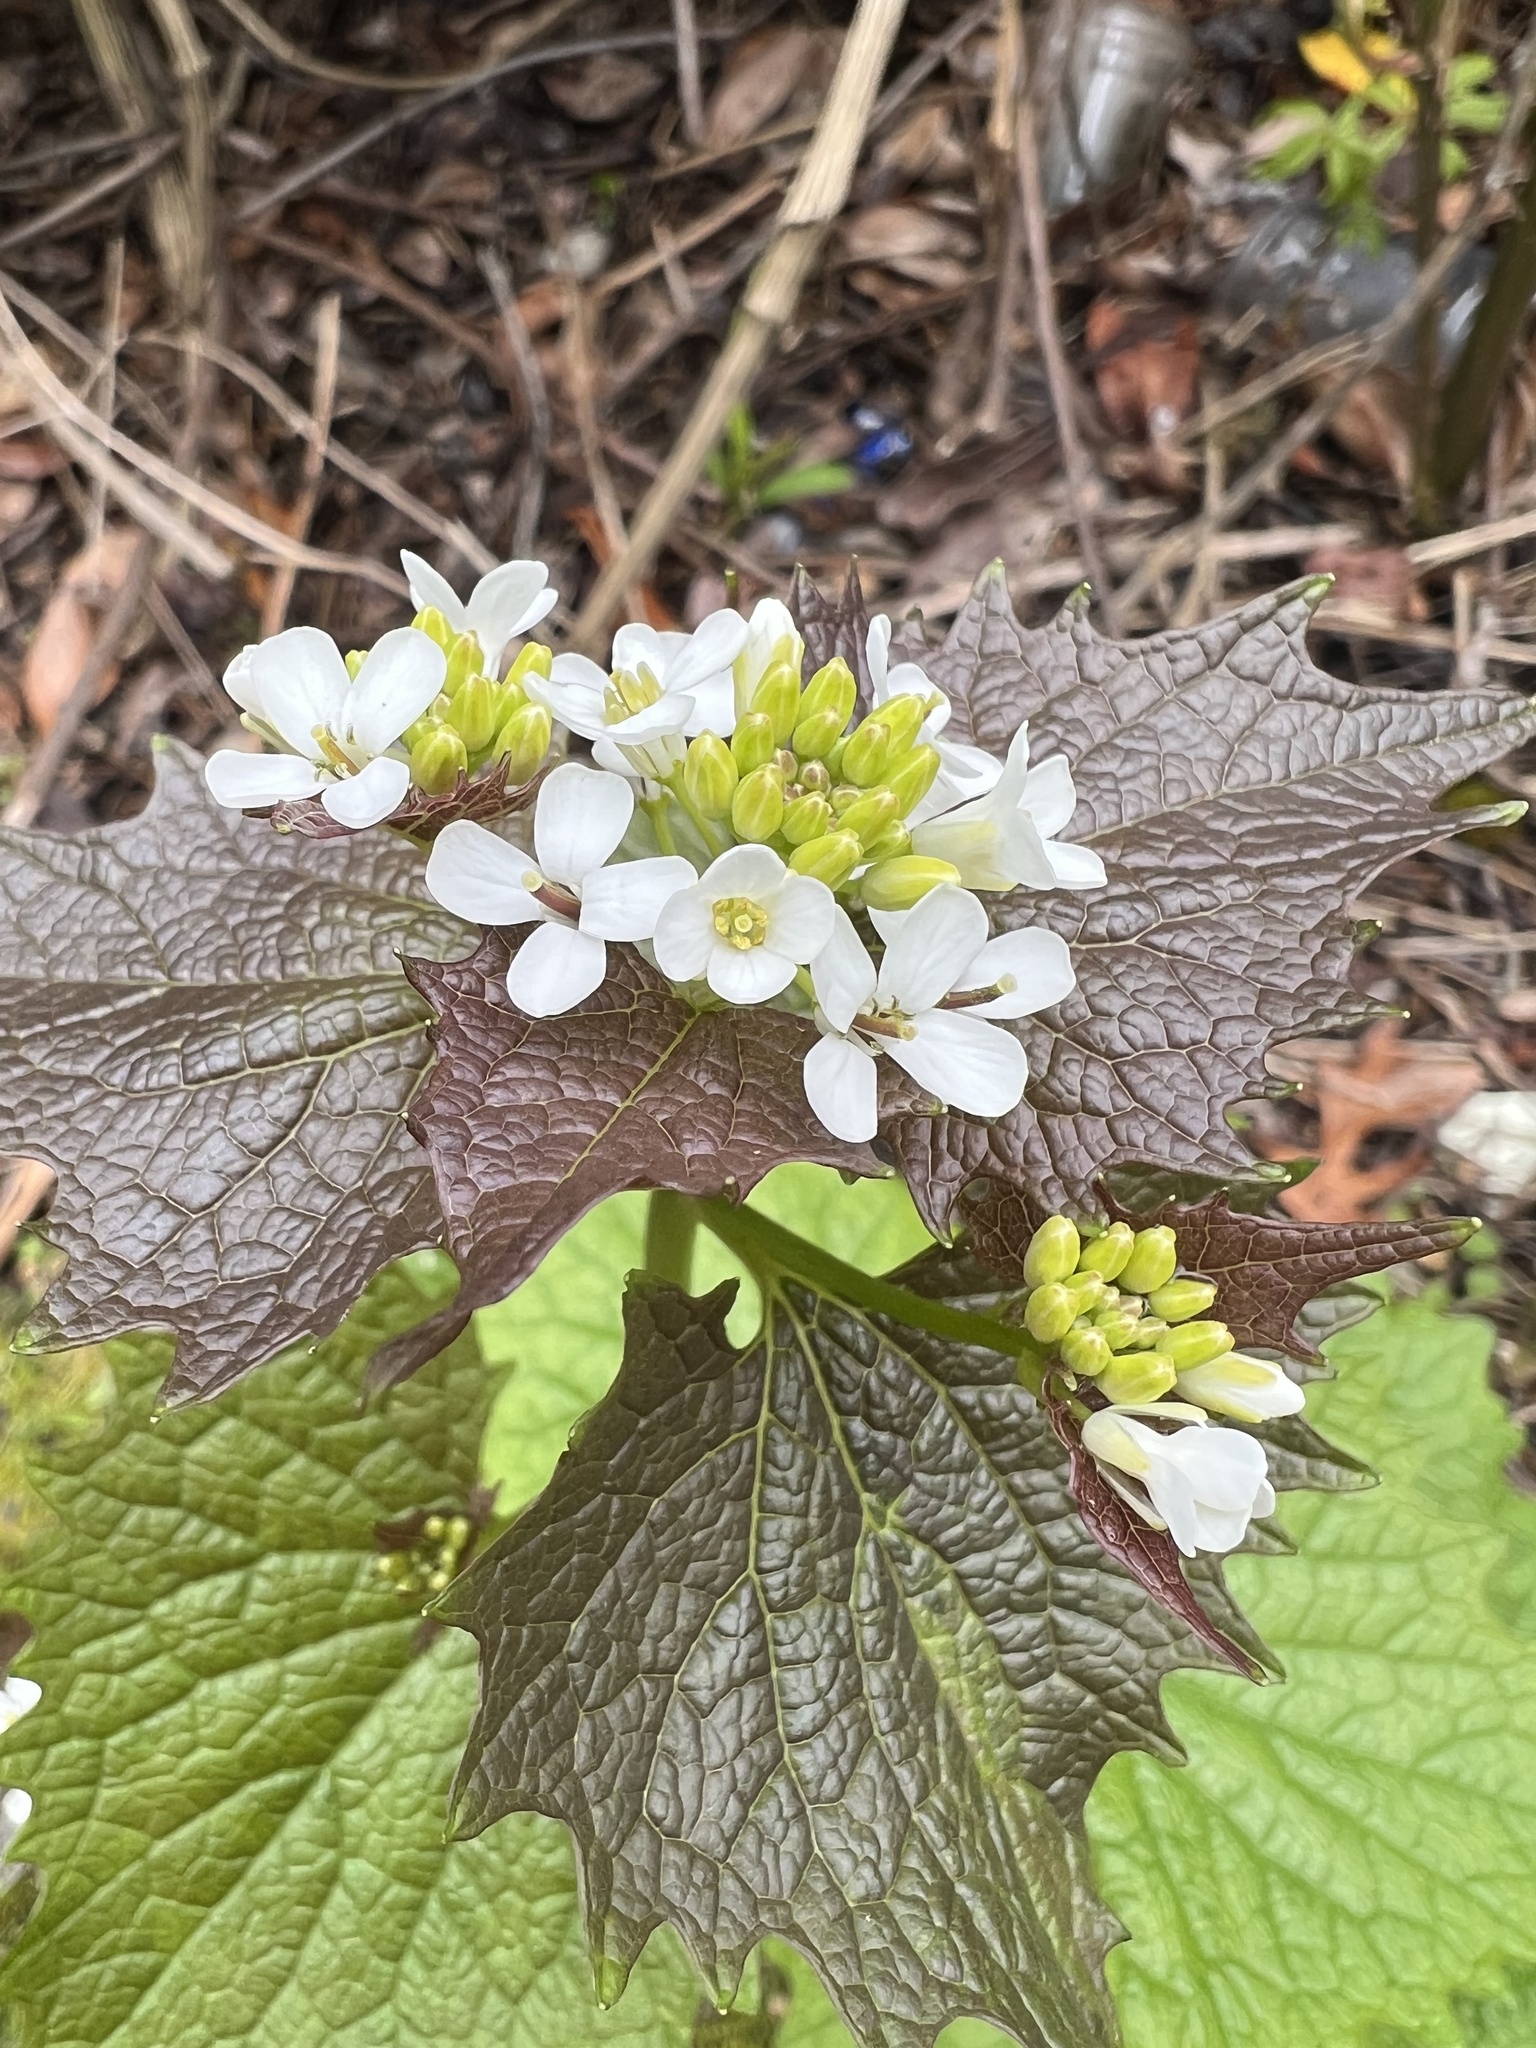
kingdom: Plantae
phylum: Tracheophyta
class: Magnoliopsida
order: Brassicales
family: Brassicaceae
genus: Alliaria
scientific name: Alliaria petiolata
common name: Garlic mustard
